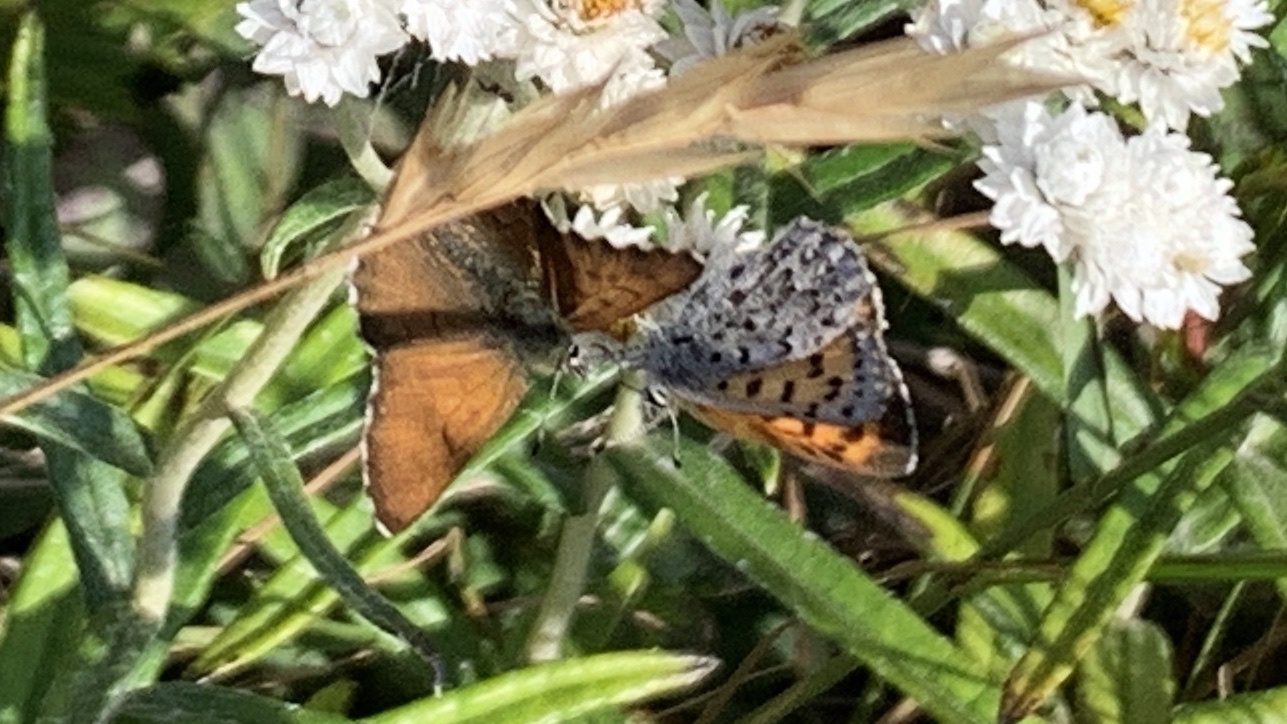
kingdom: Animalia
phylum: Arthropoda
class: Insecta
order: Lepidoptera
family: Lycaenidae
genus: Tharsalea
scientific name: Tharsalea mariposa
